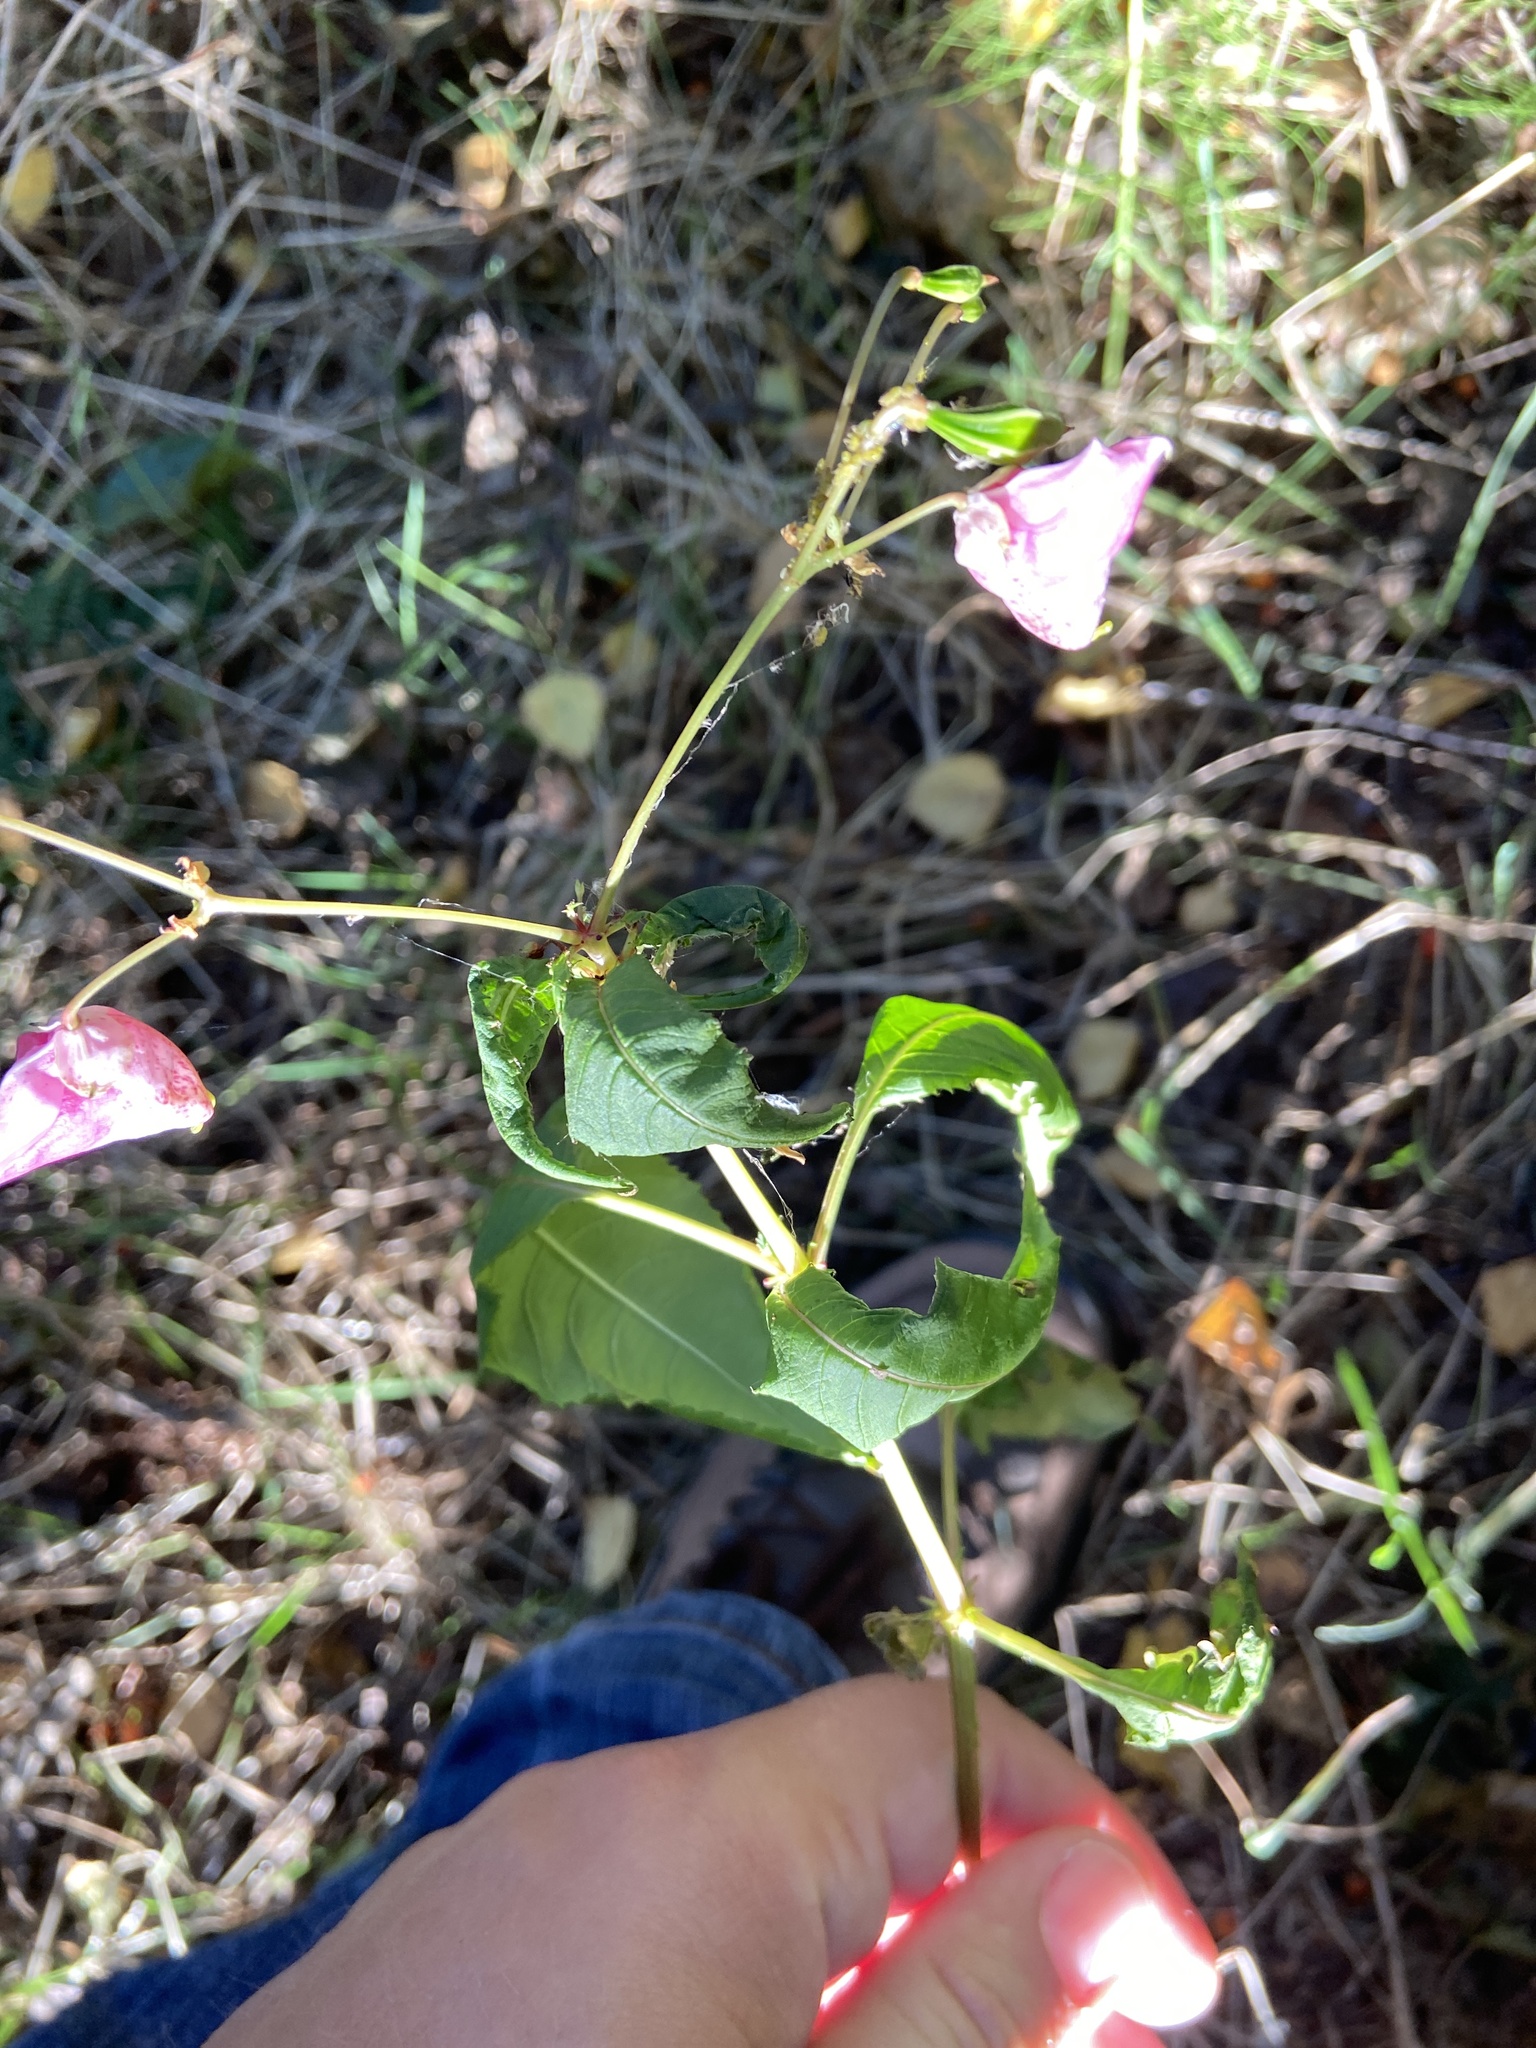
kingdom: Plantae
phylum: Tracheophyta
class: Magnoliopsida
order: Ericales
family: Balsaminaceae
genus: Impatiens
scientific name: Impatiens glandulifera
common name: Himalayan balsam
